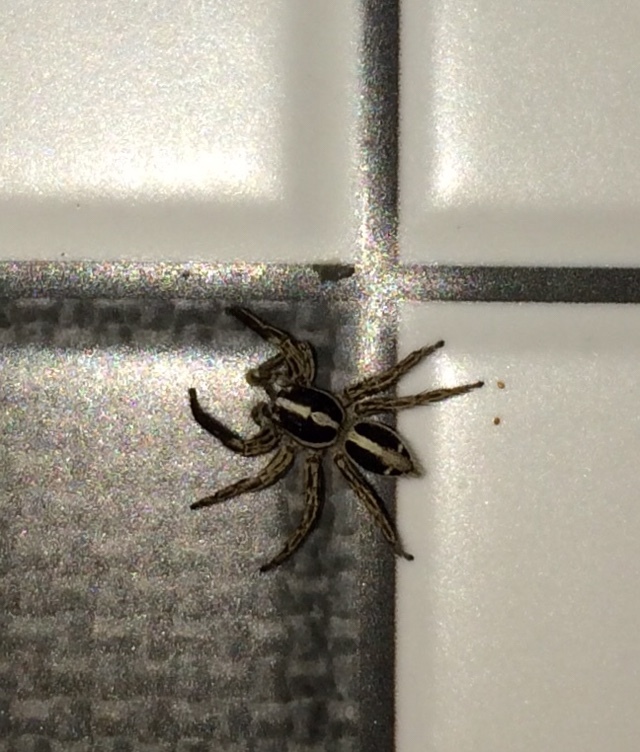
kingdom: Animalia
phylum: Arthropoda
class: Arachnida
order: Araneae
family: Salticidae
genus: Plexippus
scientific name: Plexippus paykulli
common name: Pantropical jumper
